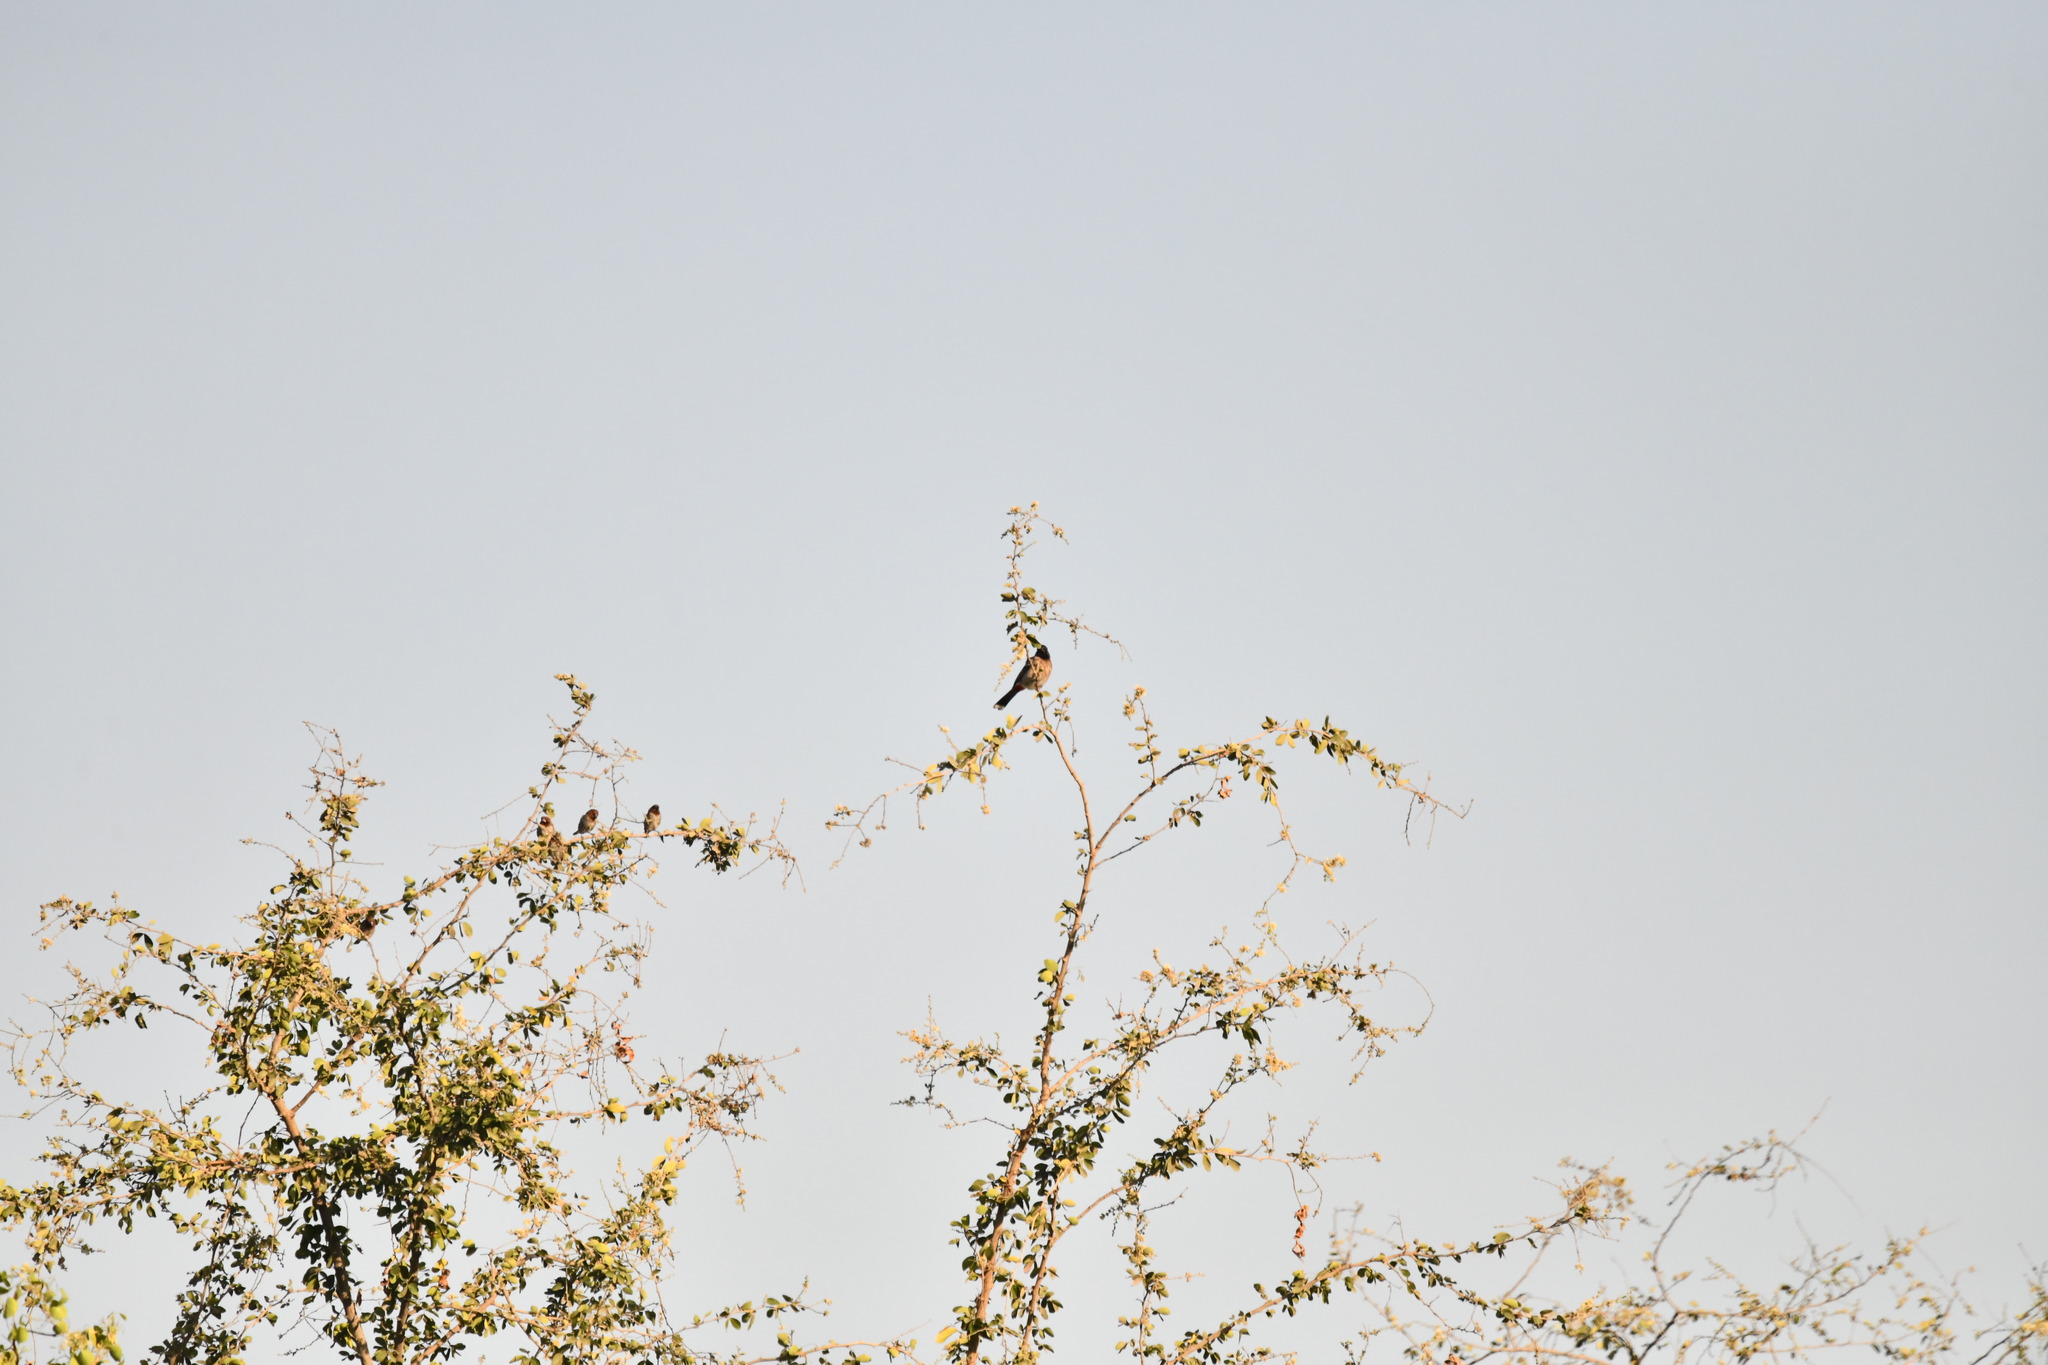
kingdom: Animalia
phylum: Chordata
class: Aves
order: Passeriformes
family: Pycnonotidae
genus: Pycnonotus
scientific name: Pycnonotus cafer
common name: Red-vented bulbul
